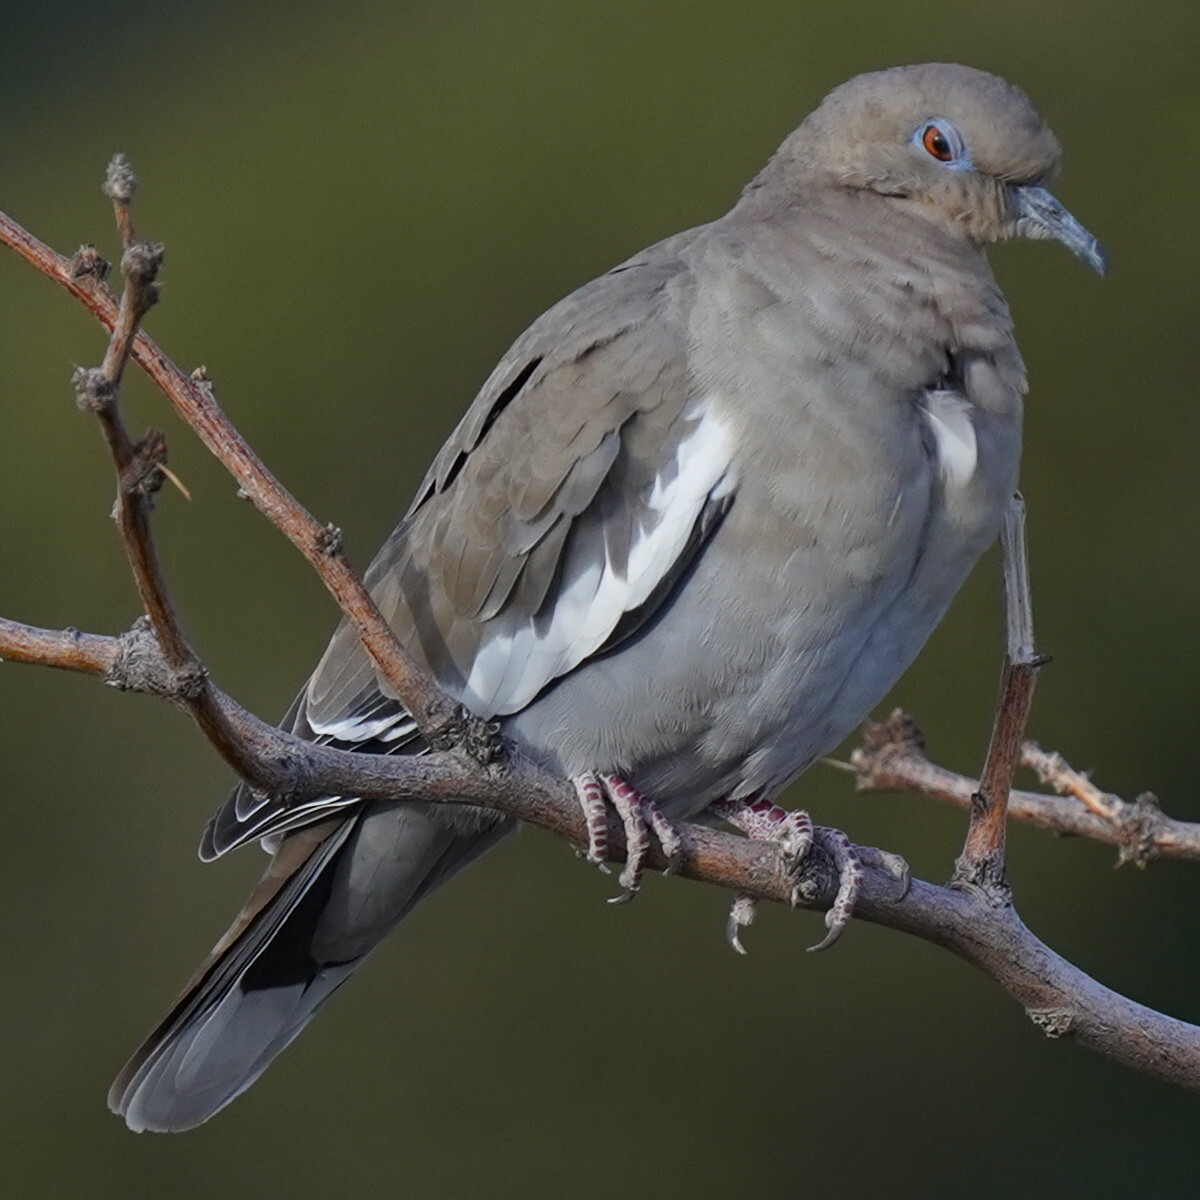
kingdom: Animalia
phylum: Chordata
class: Aves
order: Columbiformes
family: Columbidae
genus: Zenaida
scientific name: Zenaida asiatica
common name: White-winged dove
